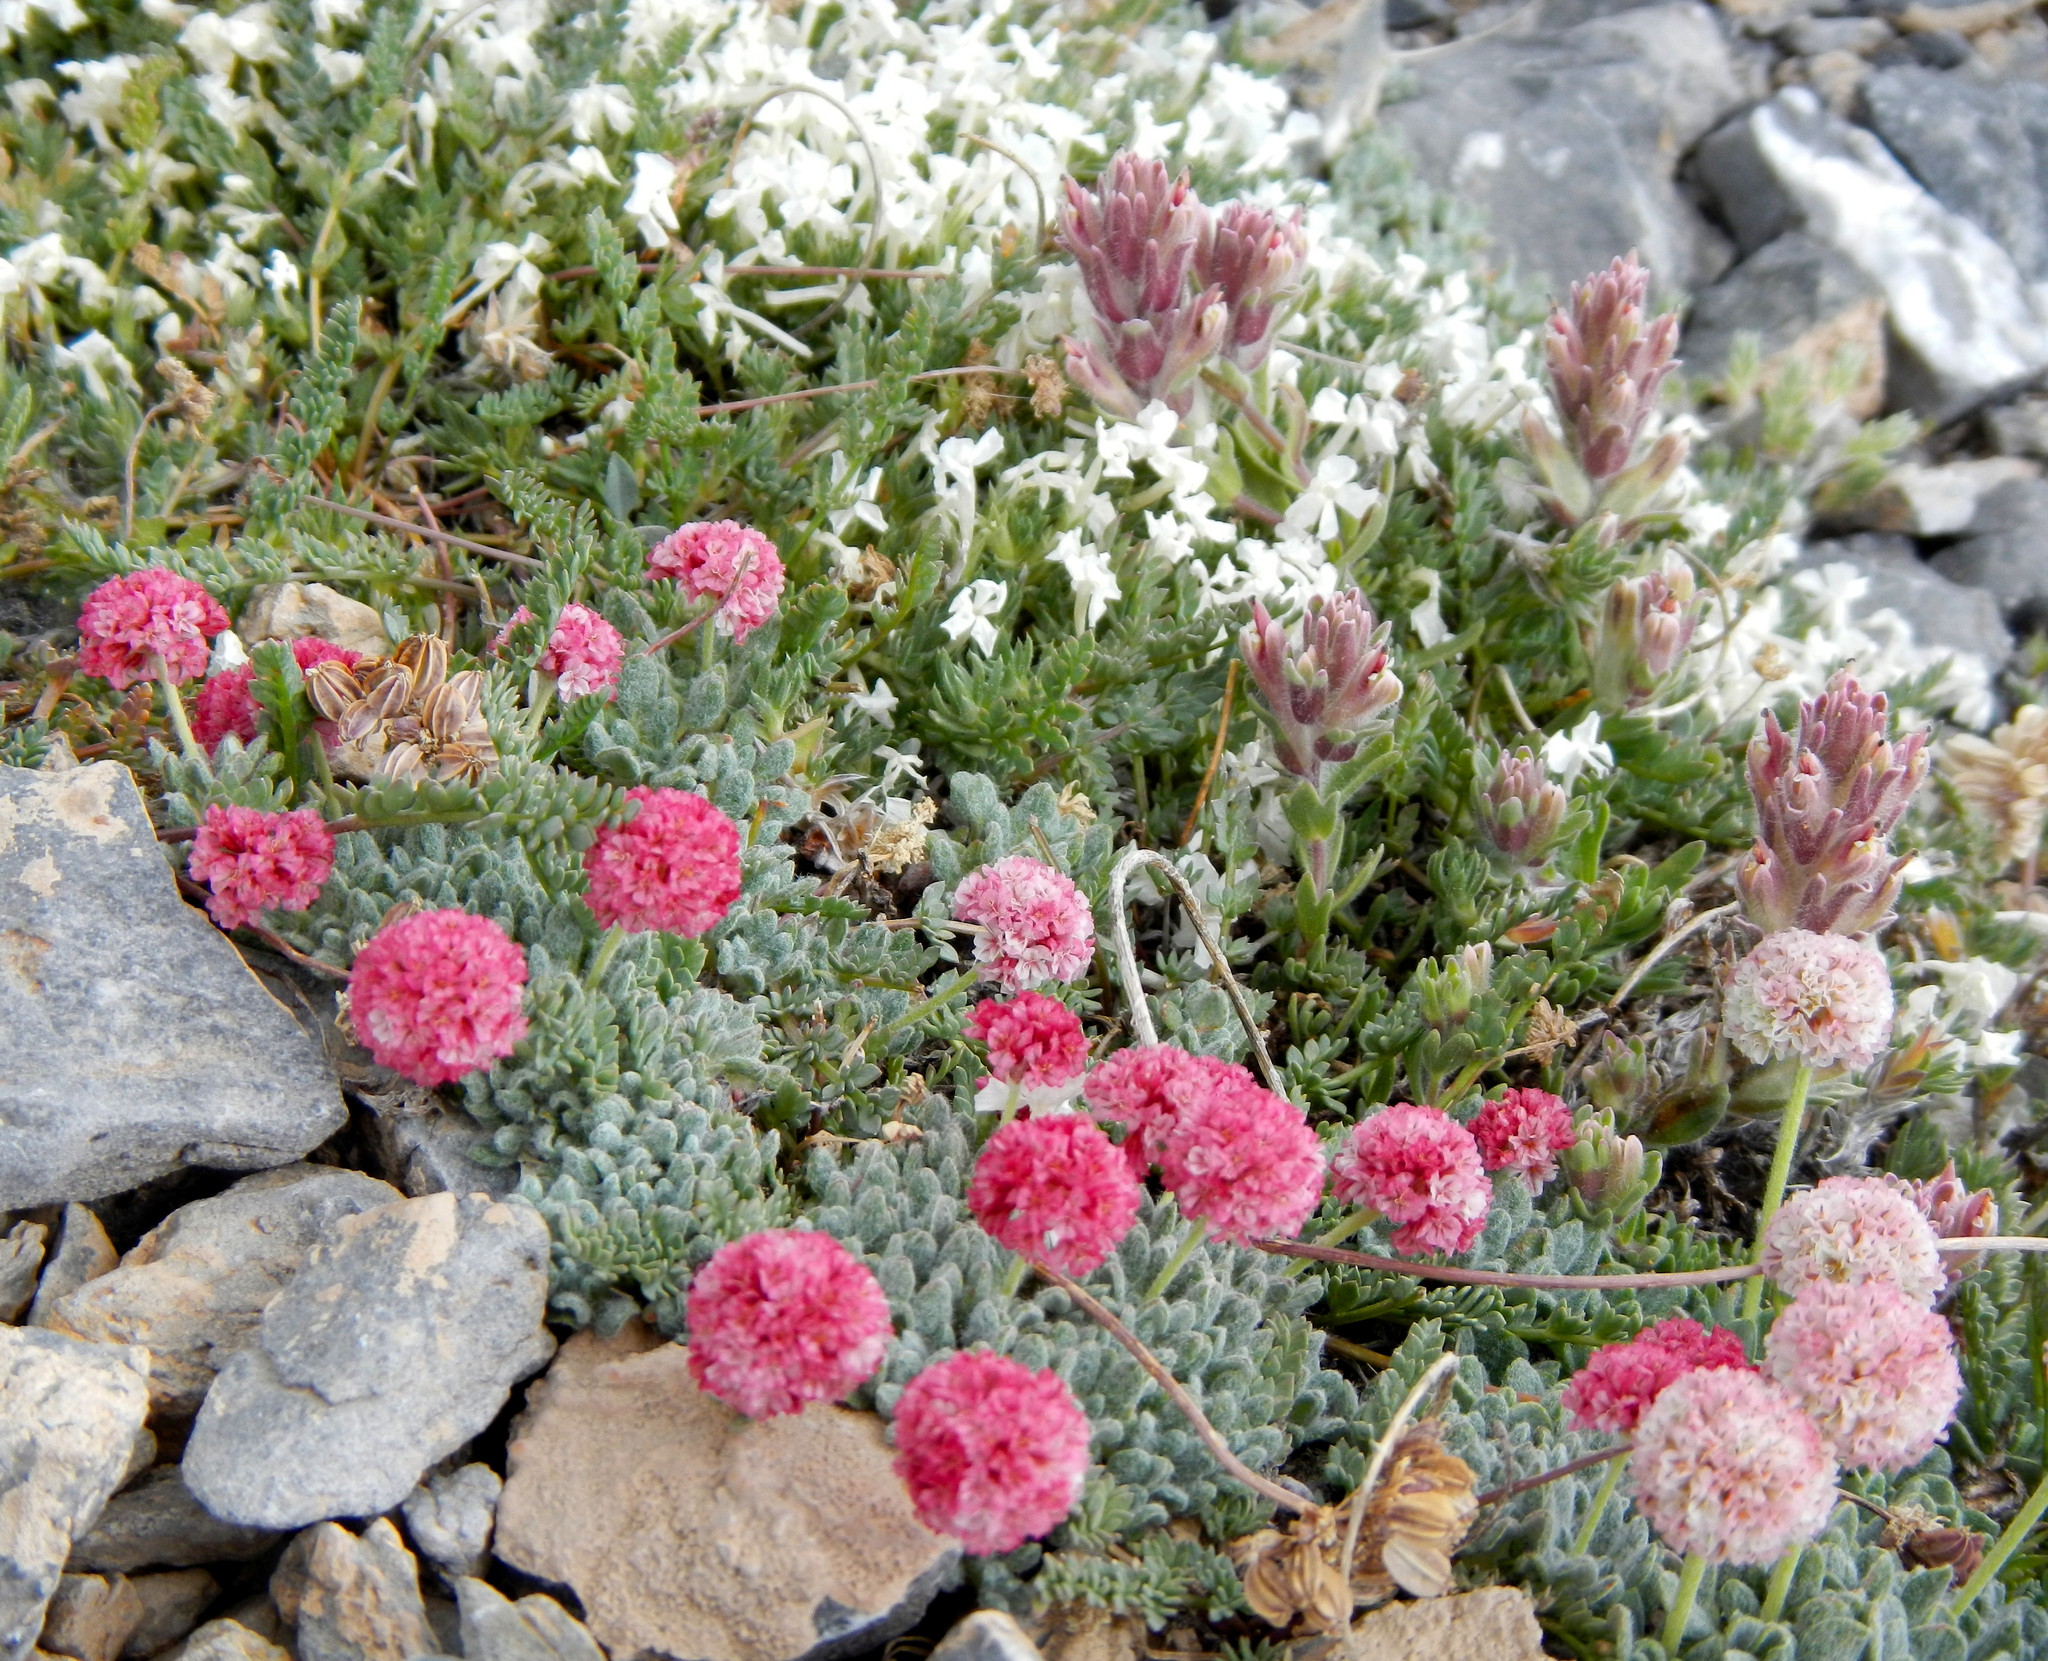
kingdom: Plantae
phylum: Tracheophyta
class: Magnoliopsida
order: Caryophyllales
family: Polygonaceae
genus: Eriogonum
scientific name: Eriogonum holmgrenii
